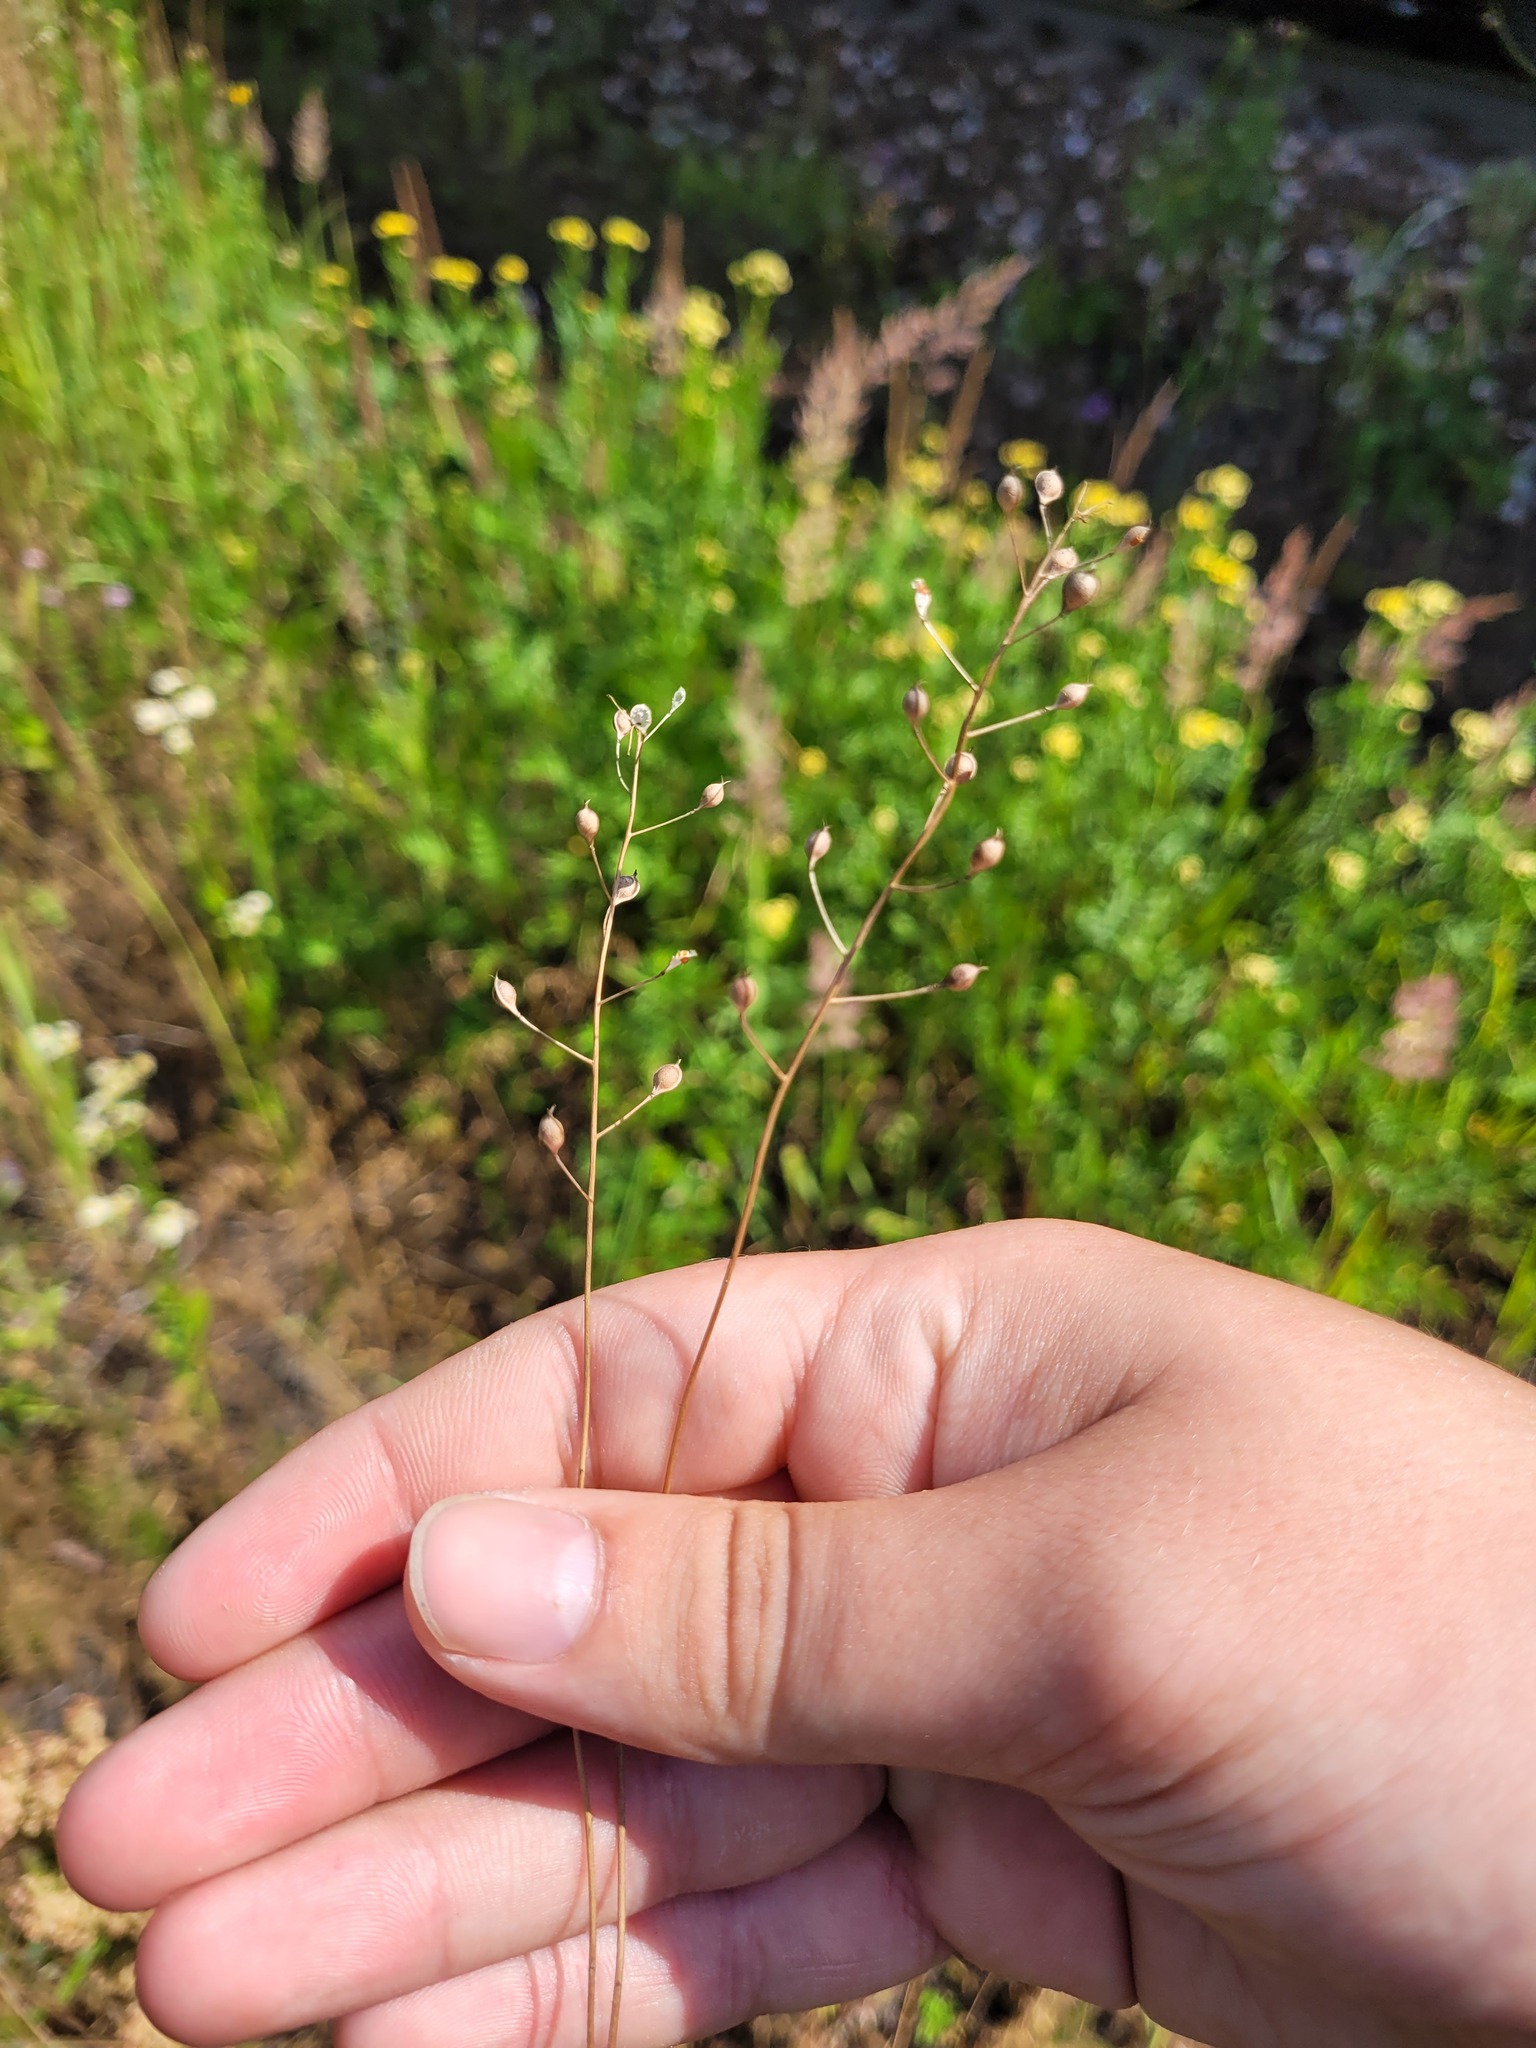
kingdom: Plantae
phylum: Tracheophyta
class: Magnoliopsida
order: Brassicales
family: Brassicaceae
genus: Camelina
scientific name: Camelina microcarpa
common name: Lesser gold-of-pleasure
